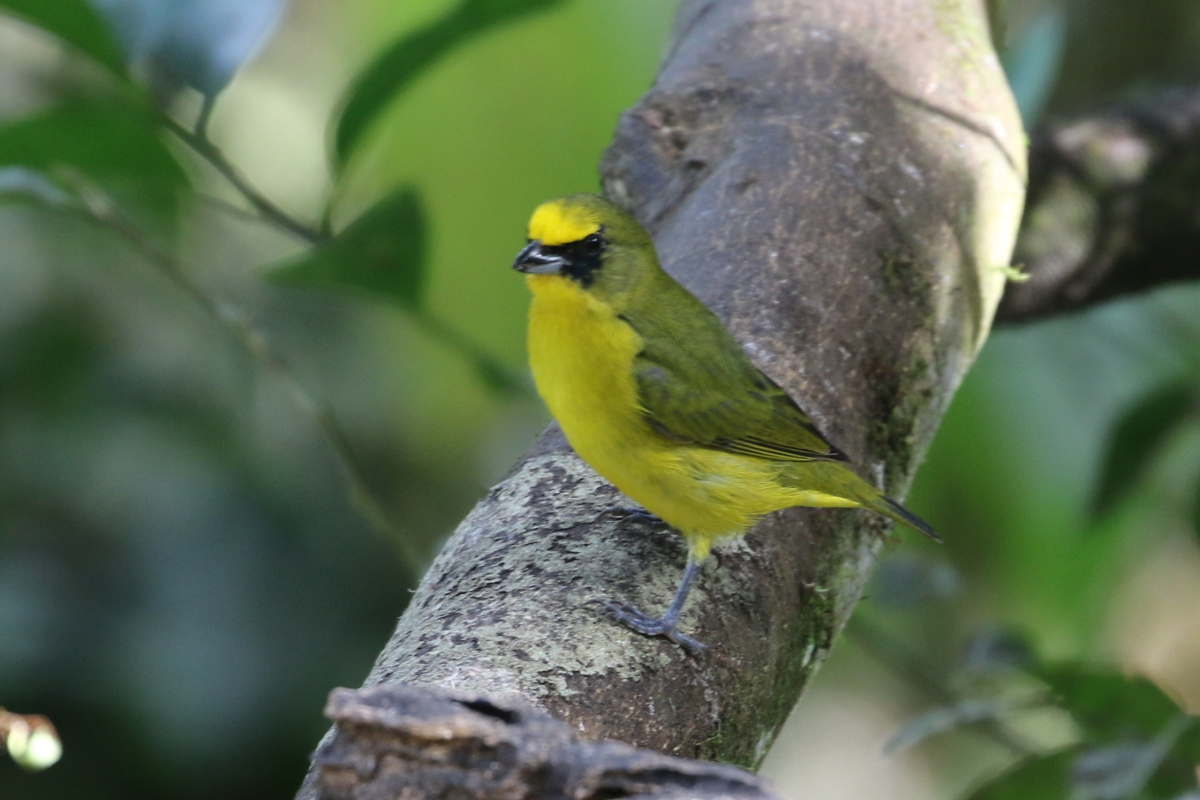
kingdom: Animalia
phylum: Chordata
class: Aves
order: Passeriformes
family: Fringillidae
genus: Euphonia
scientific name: Euphonia laniirostris
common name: Thick-billed euphonia
